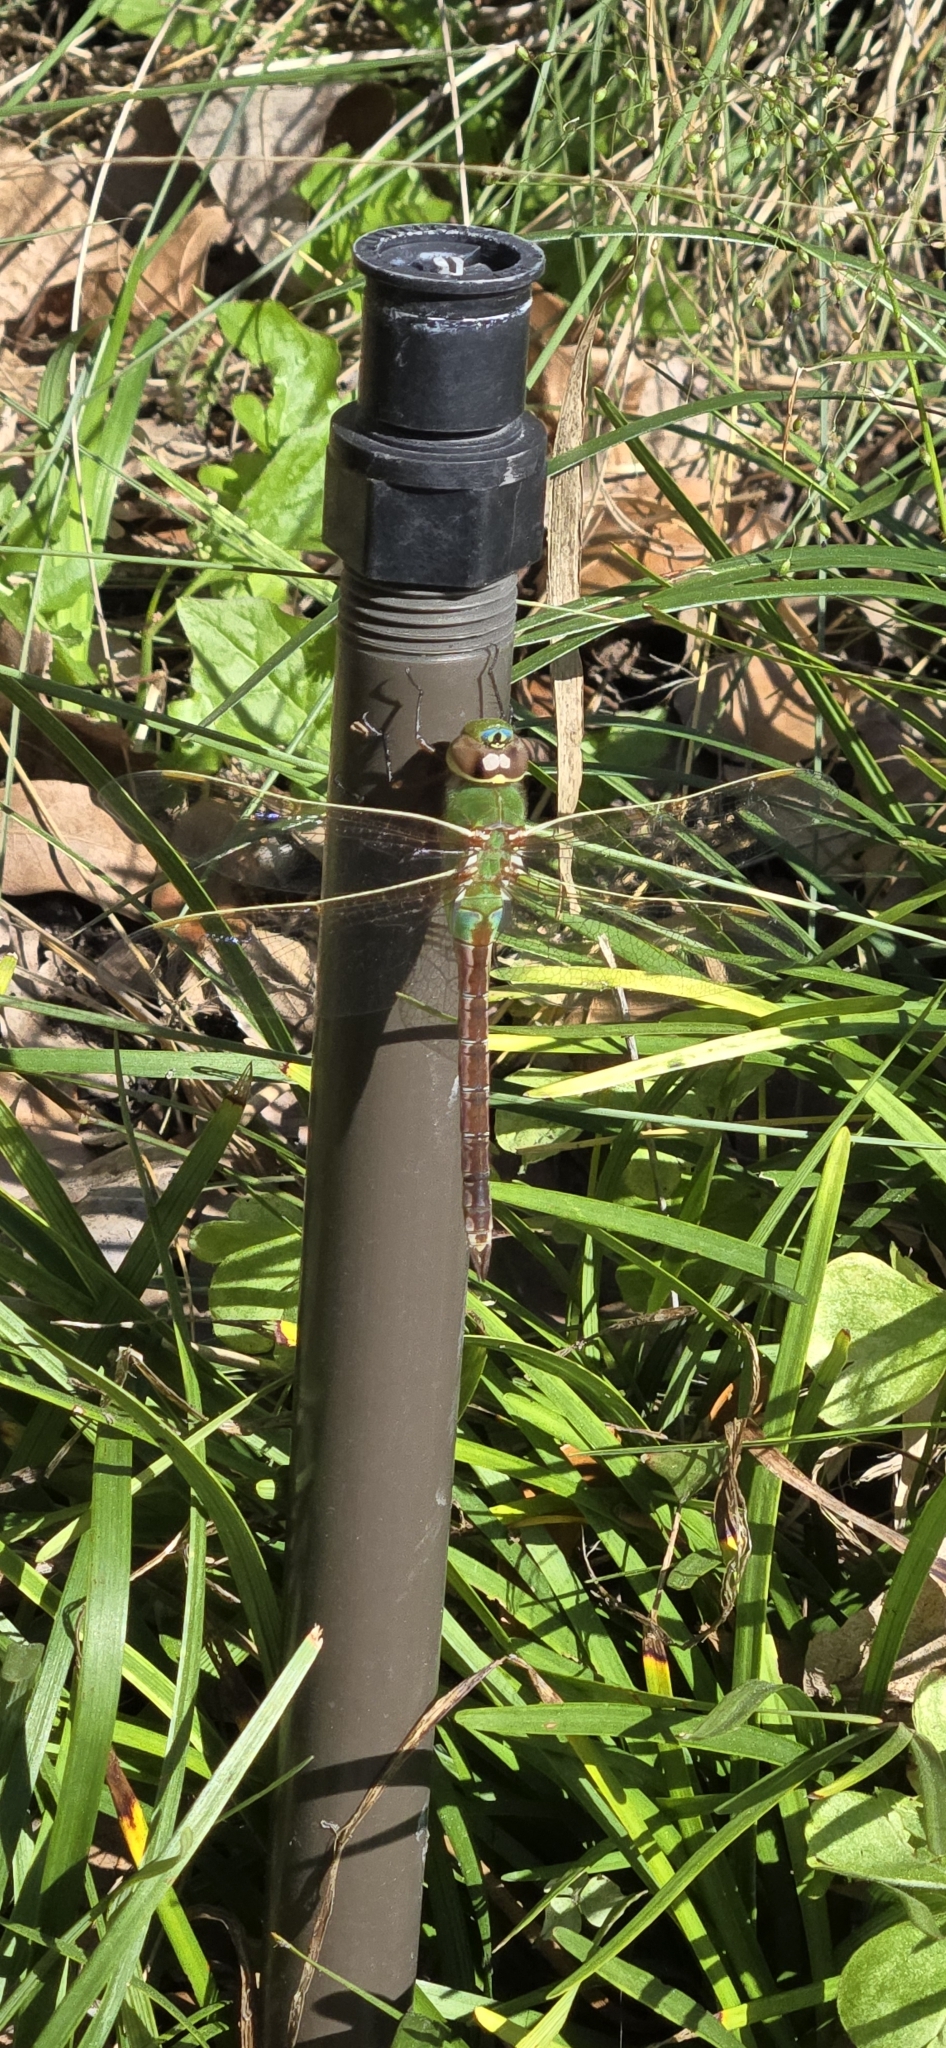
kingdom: Animalia
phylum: Arthropoda
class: Insecta
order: Odonata
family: Aeshnidae
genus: Anax
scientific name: Anax junius
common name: Common green darner
